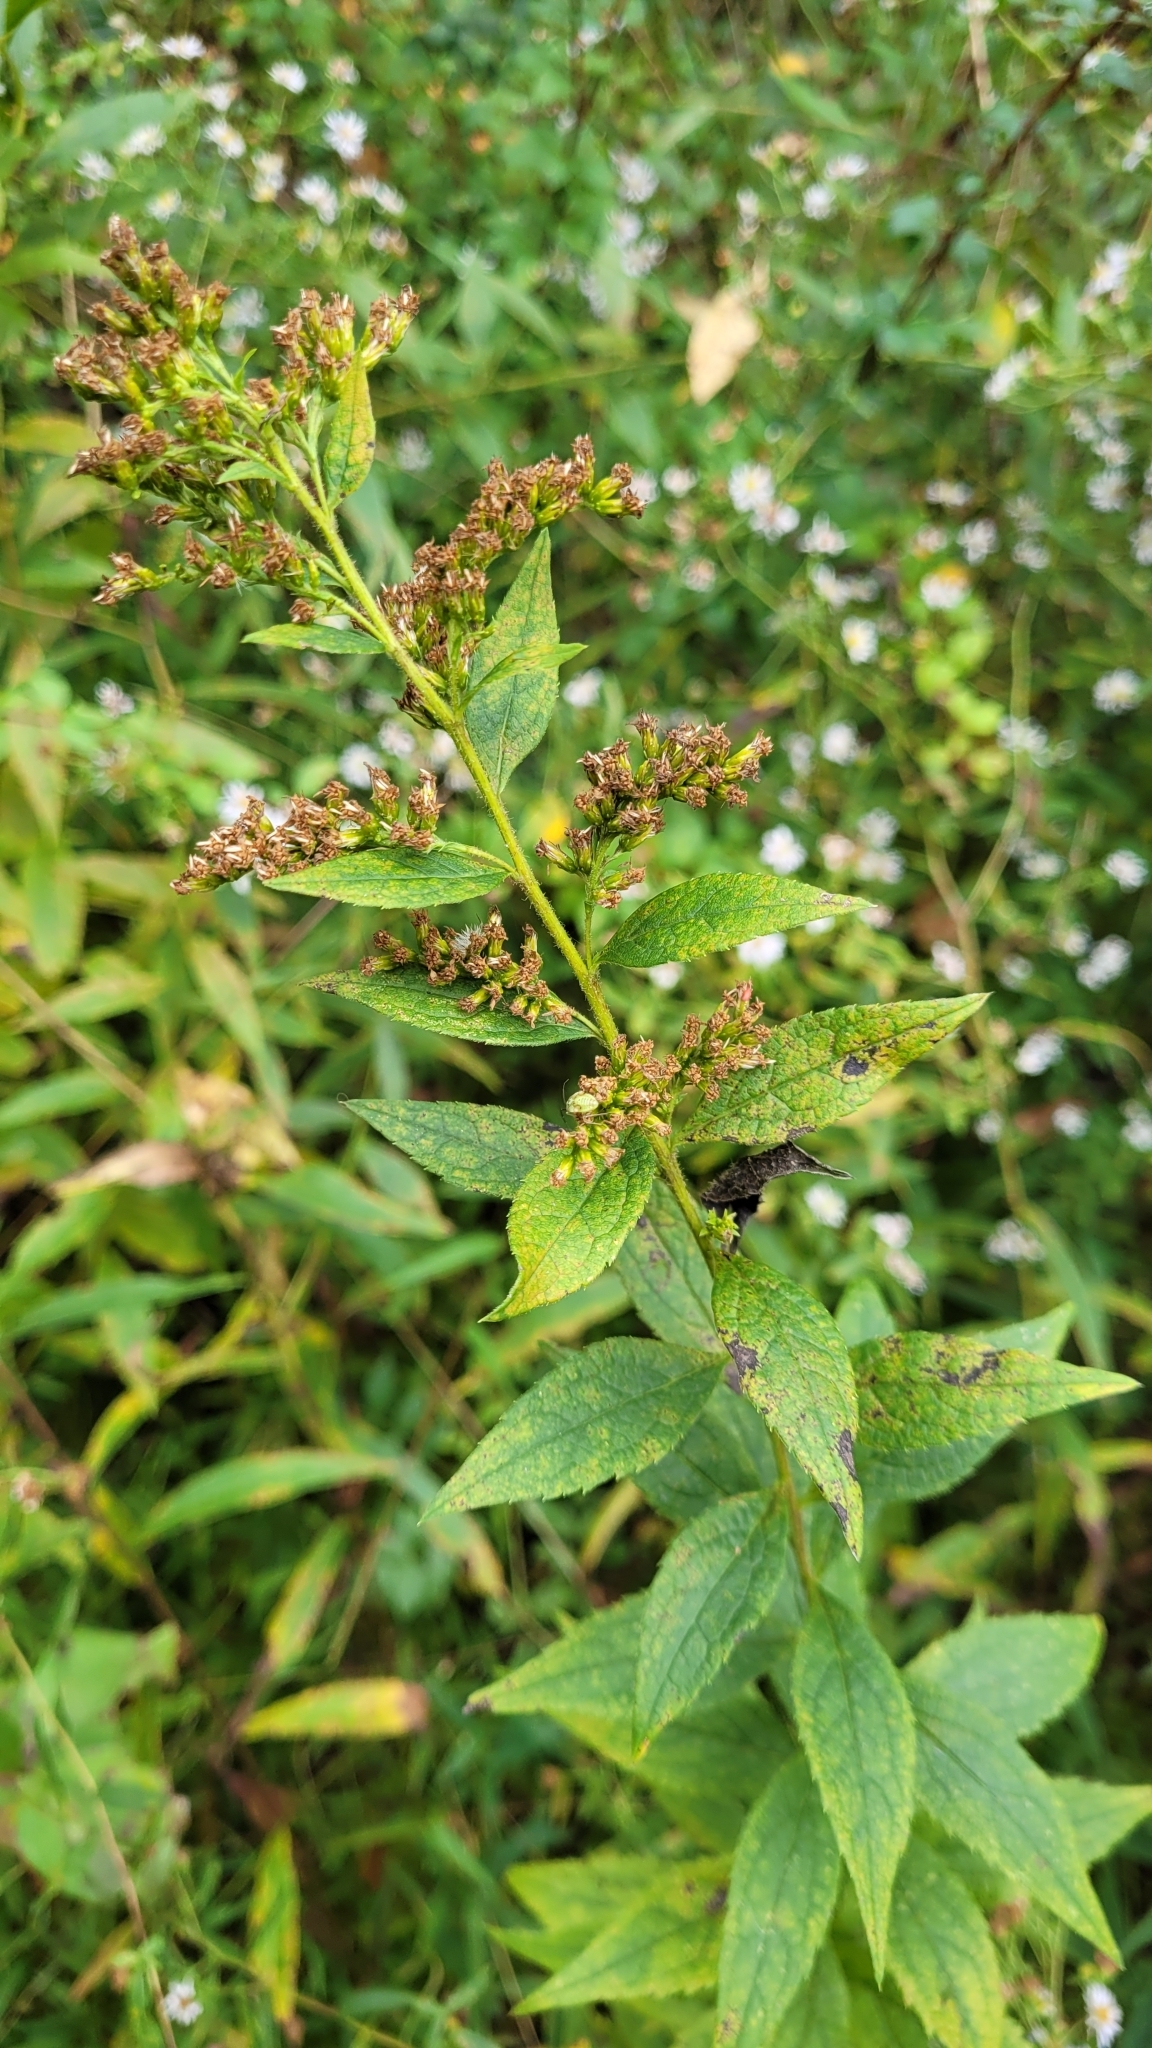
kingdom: Plantae
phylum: Tracheophyta
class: Magnoliopsida
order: Asterales
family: Asteraceae
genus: Solidago
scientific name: Solidago rugosa
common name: Rough-stemmed goldenrod
